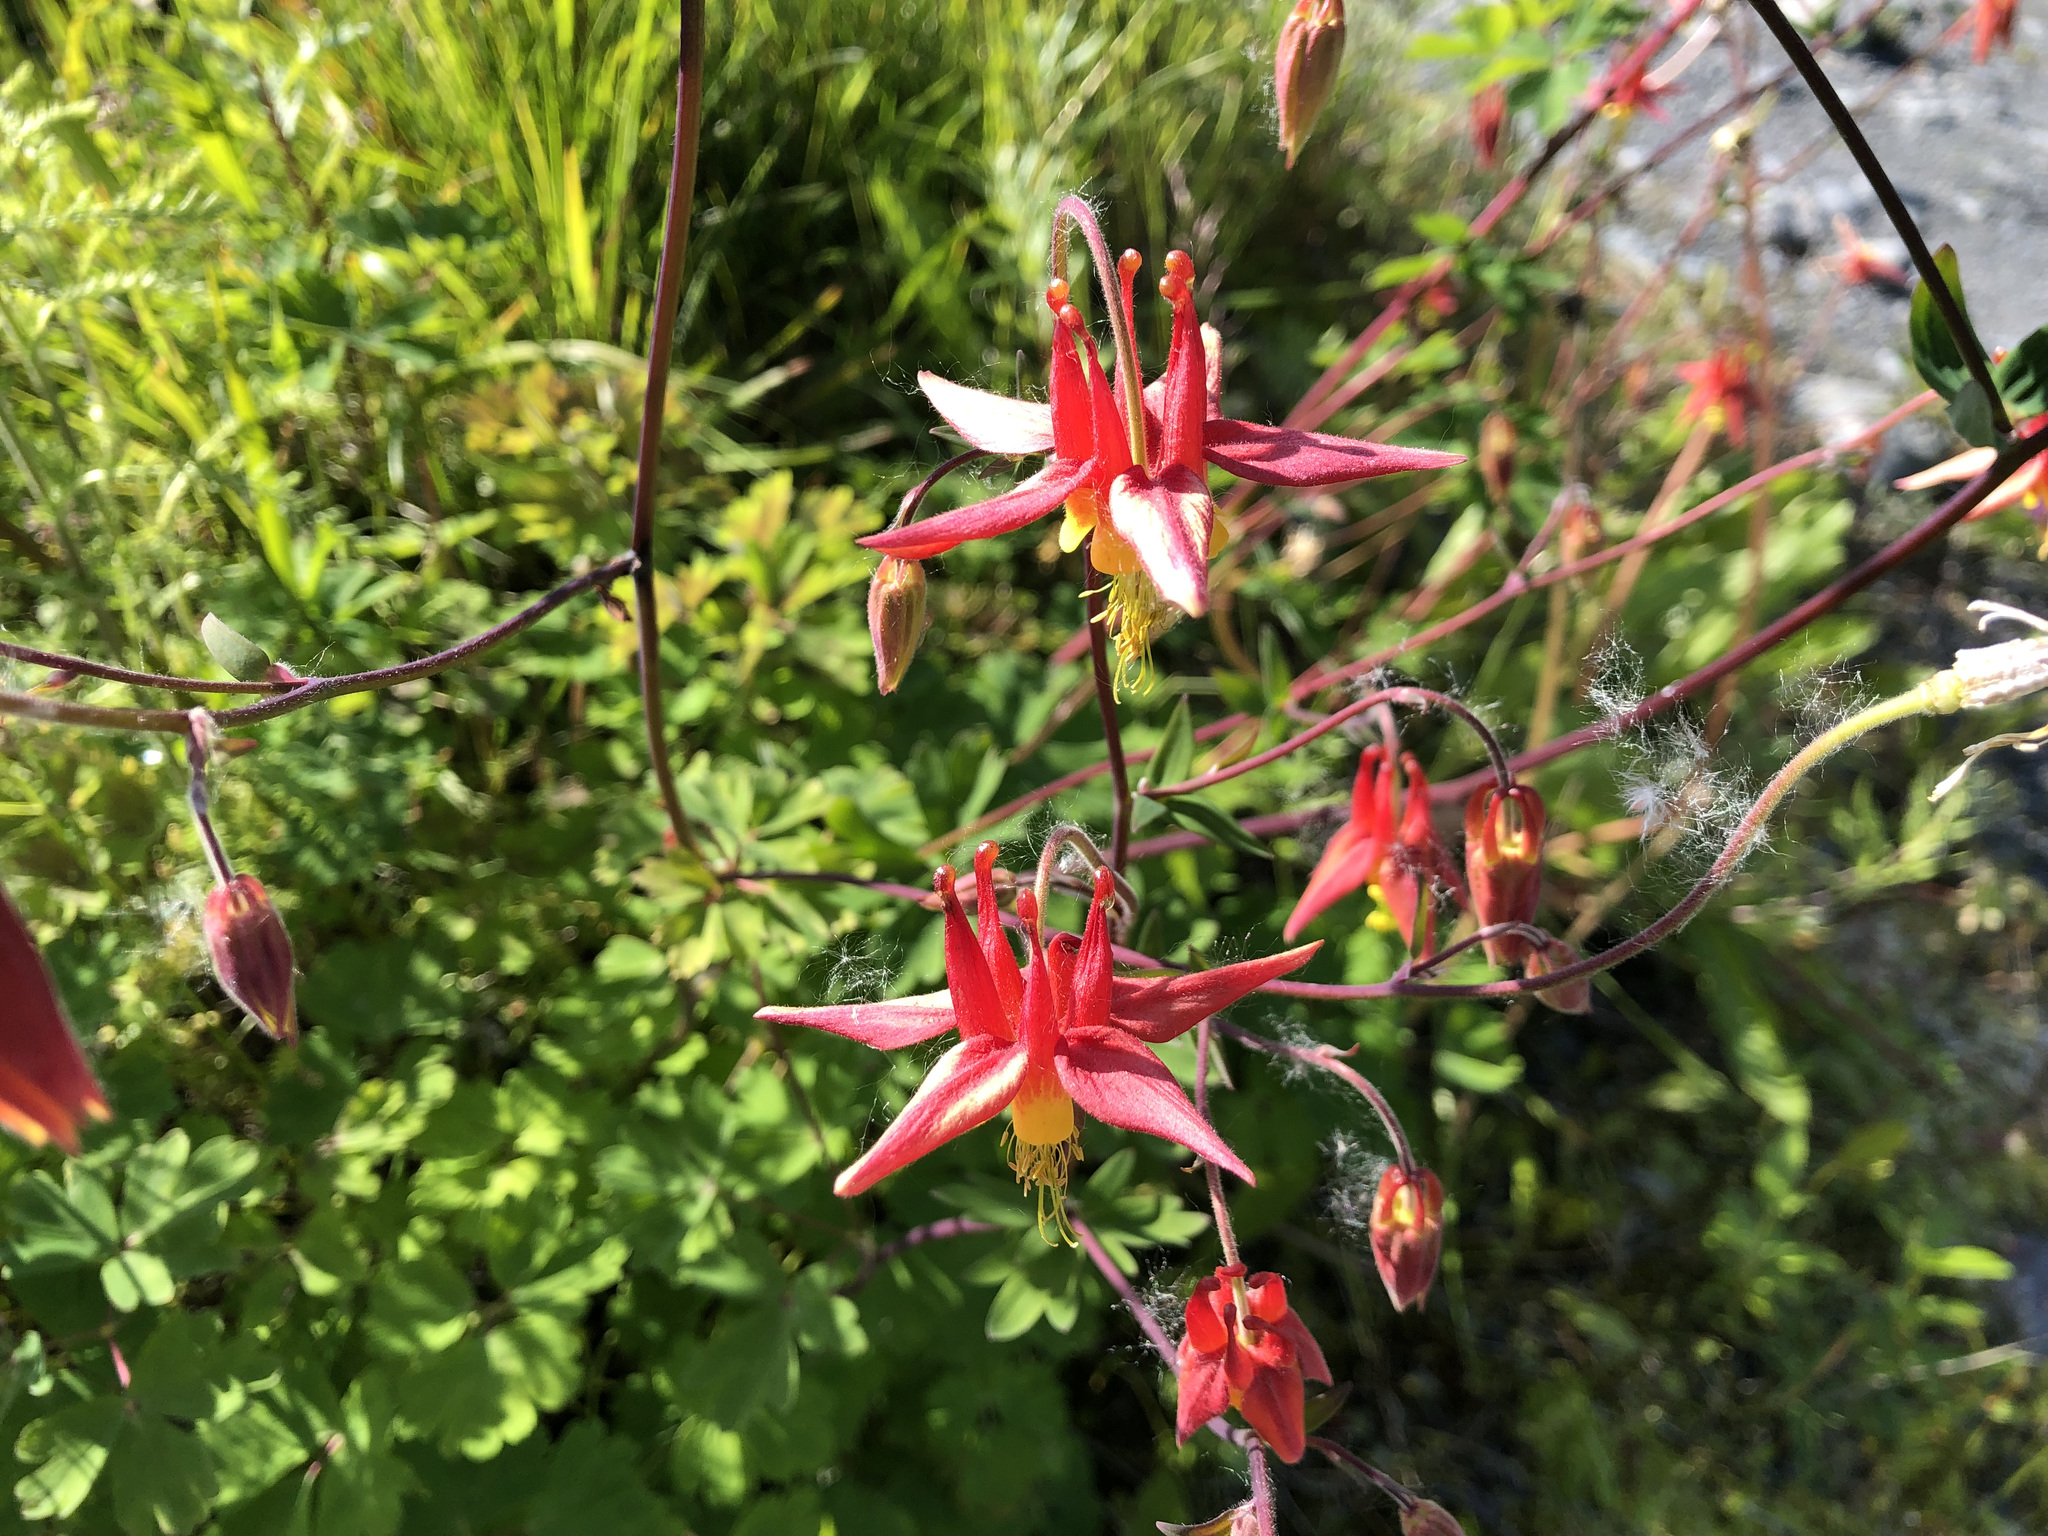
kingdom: Plantae
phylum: Tracheophyta
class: Magnoliopsida
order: Ranunculales
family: Ranunculaceae
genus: Aquilegia
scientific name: Aquilegia formosa
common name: Sitka columbine
